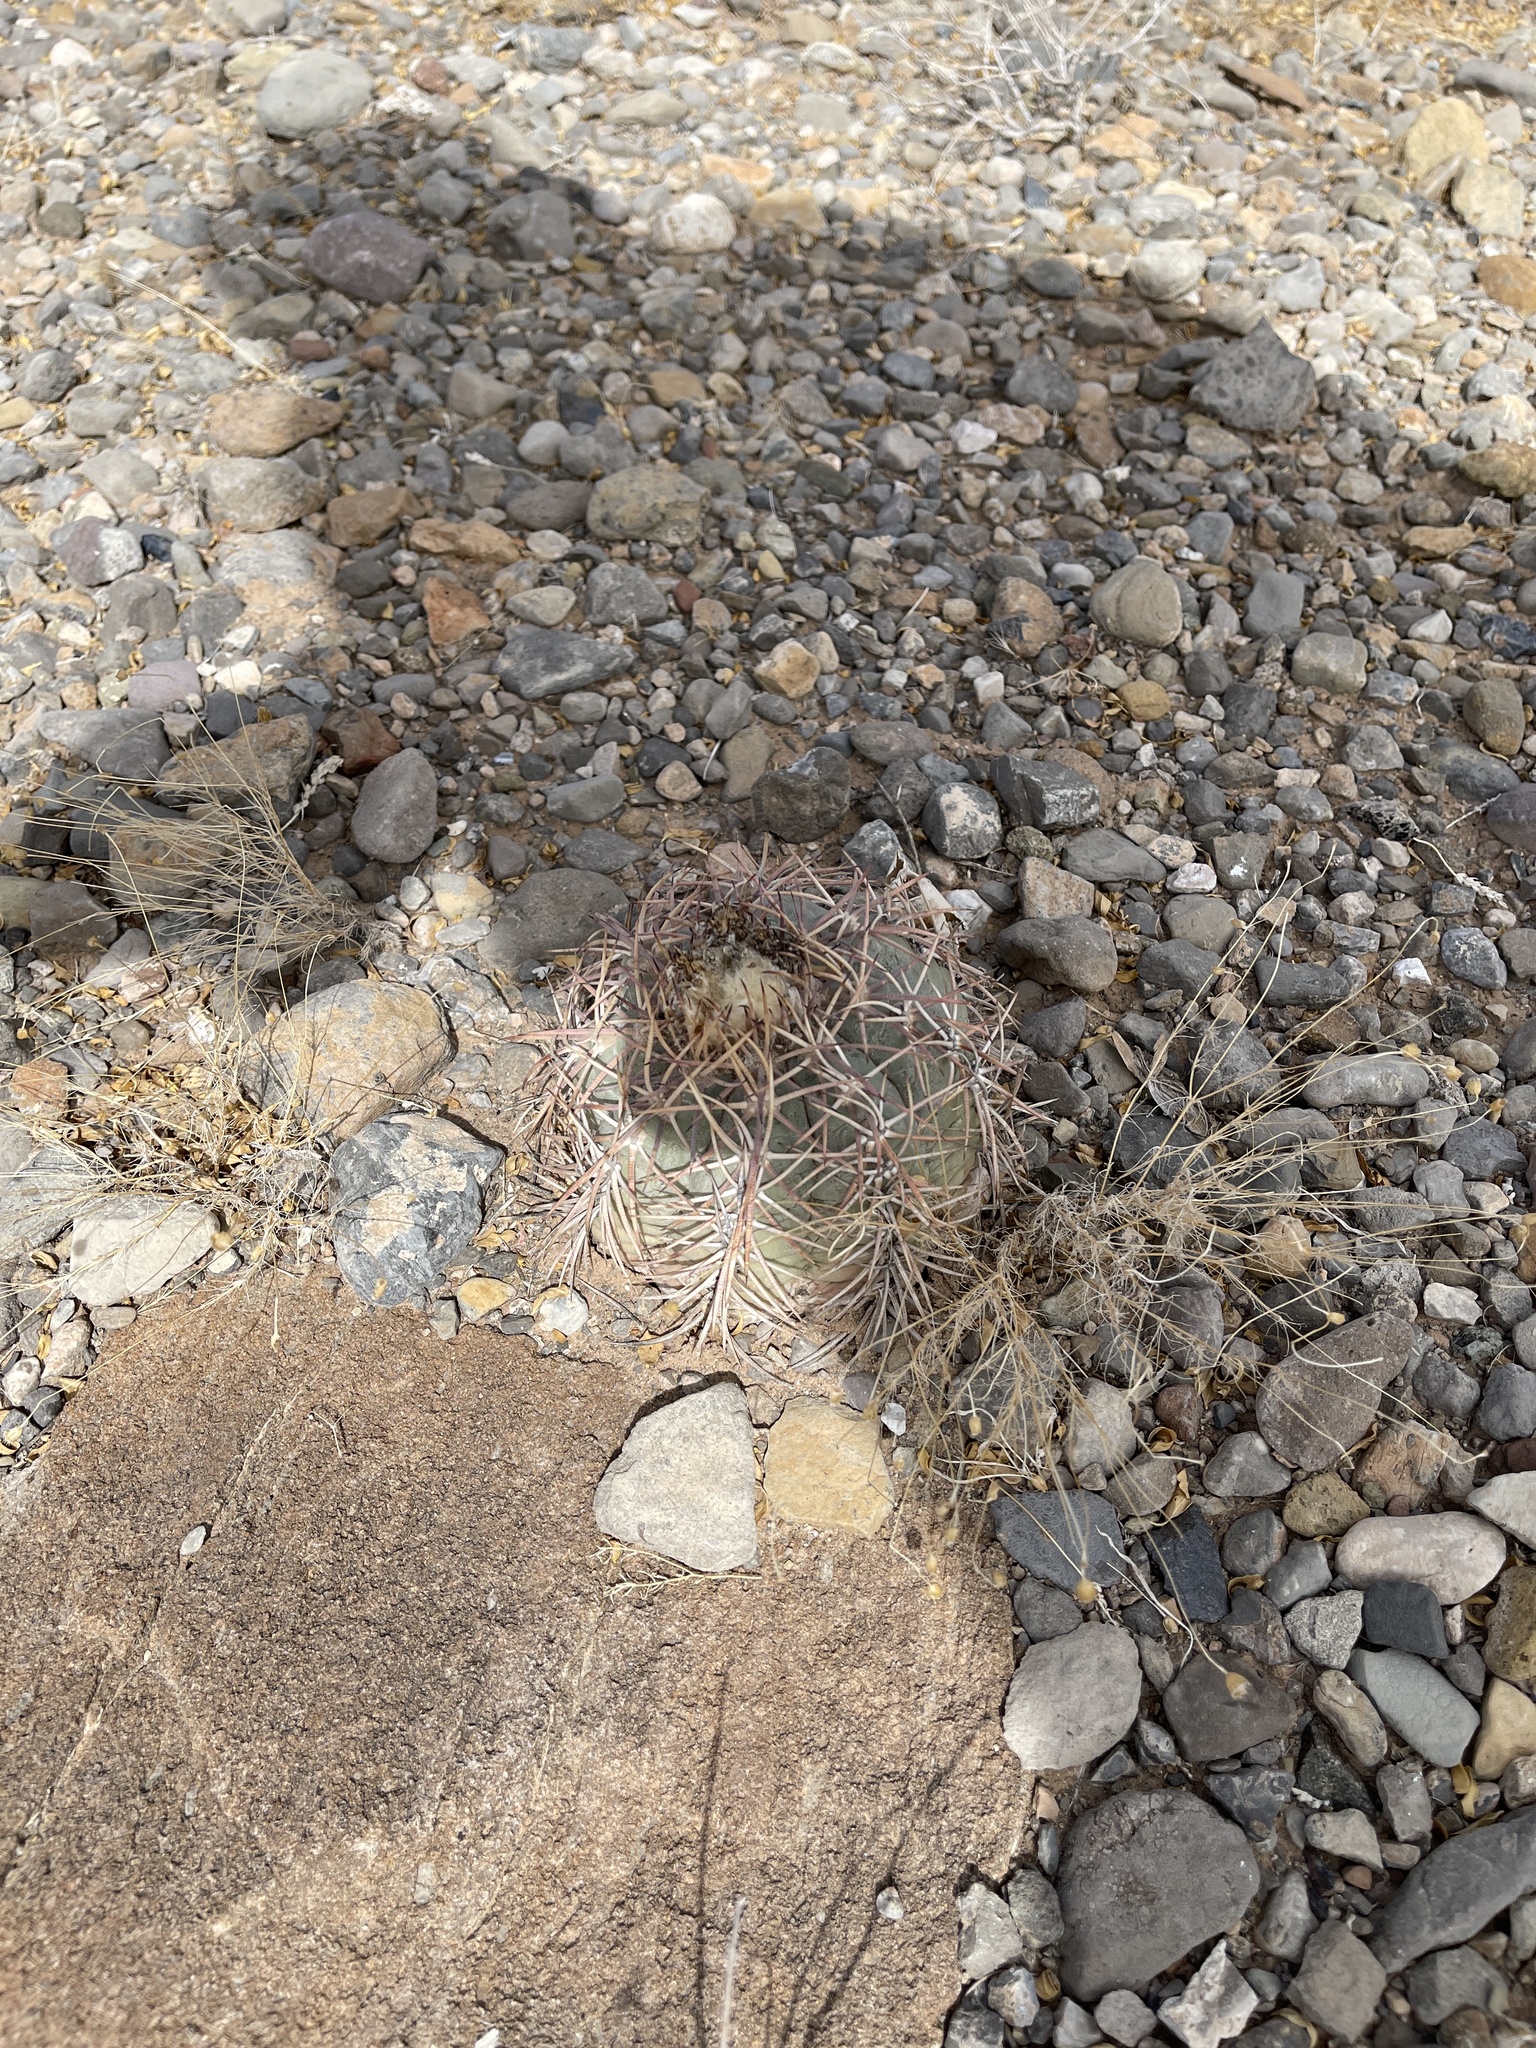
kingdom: Plantae
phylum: Tracheophyta
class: Magnoliopsida
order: Caryophyllales
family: Cactaceae
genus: Echinocactus
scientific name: Echinocactus horizonthalonius
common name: Devilshead
